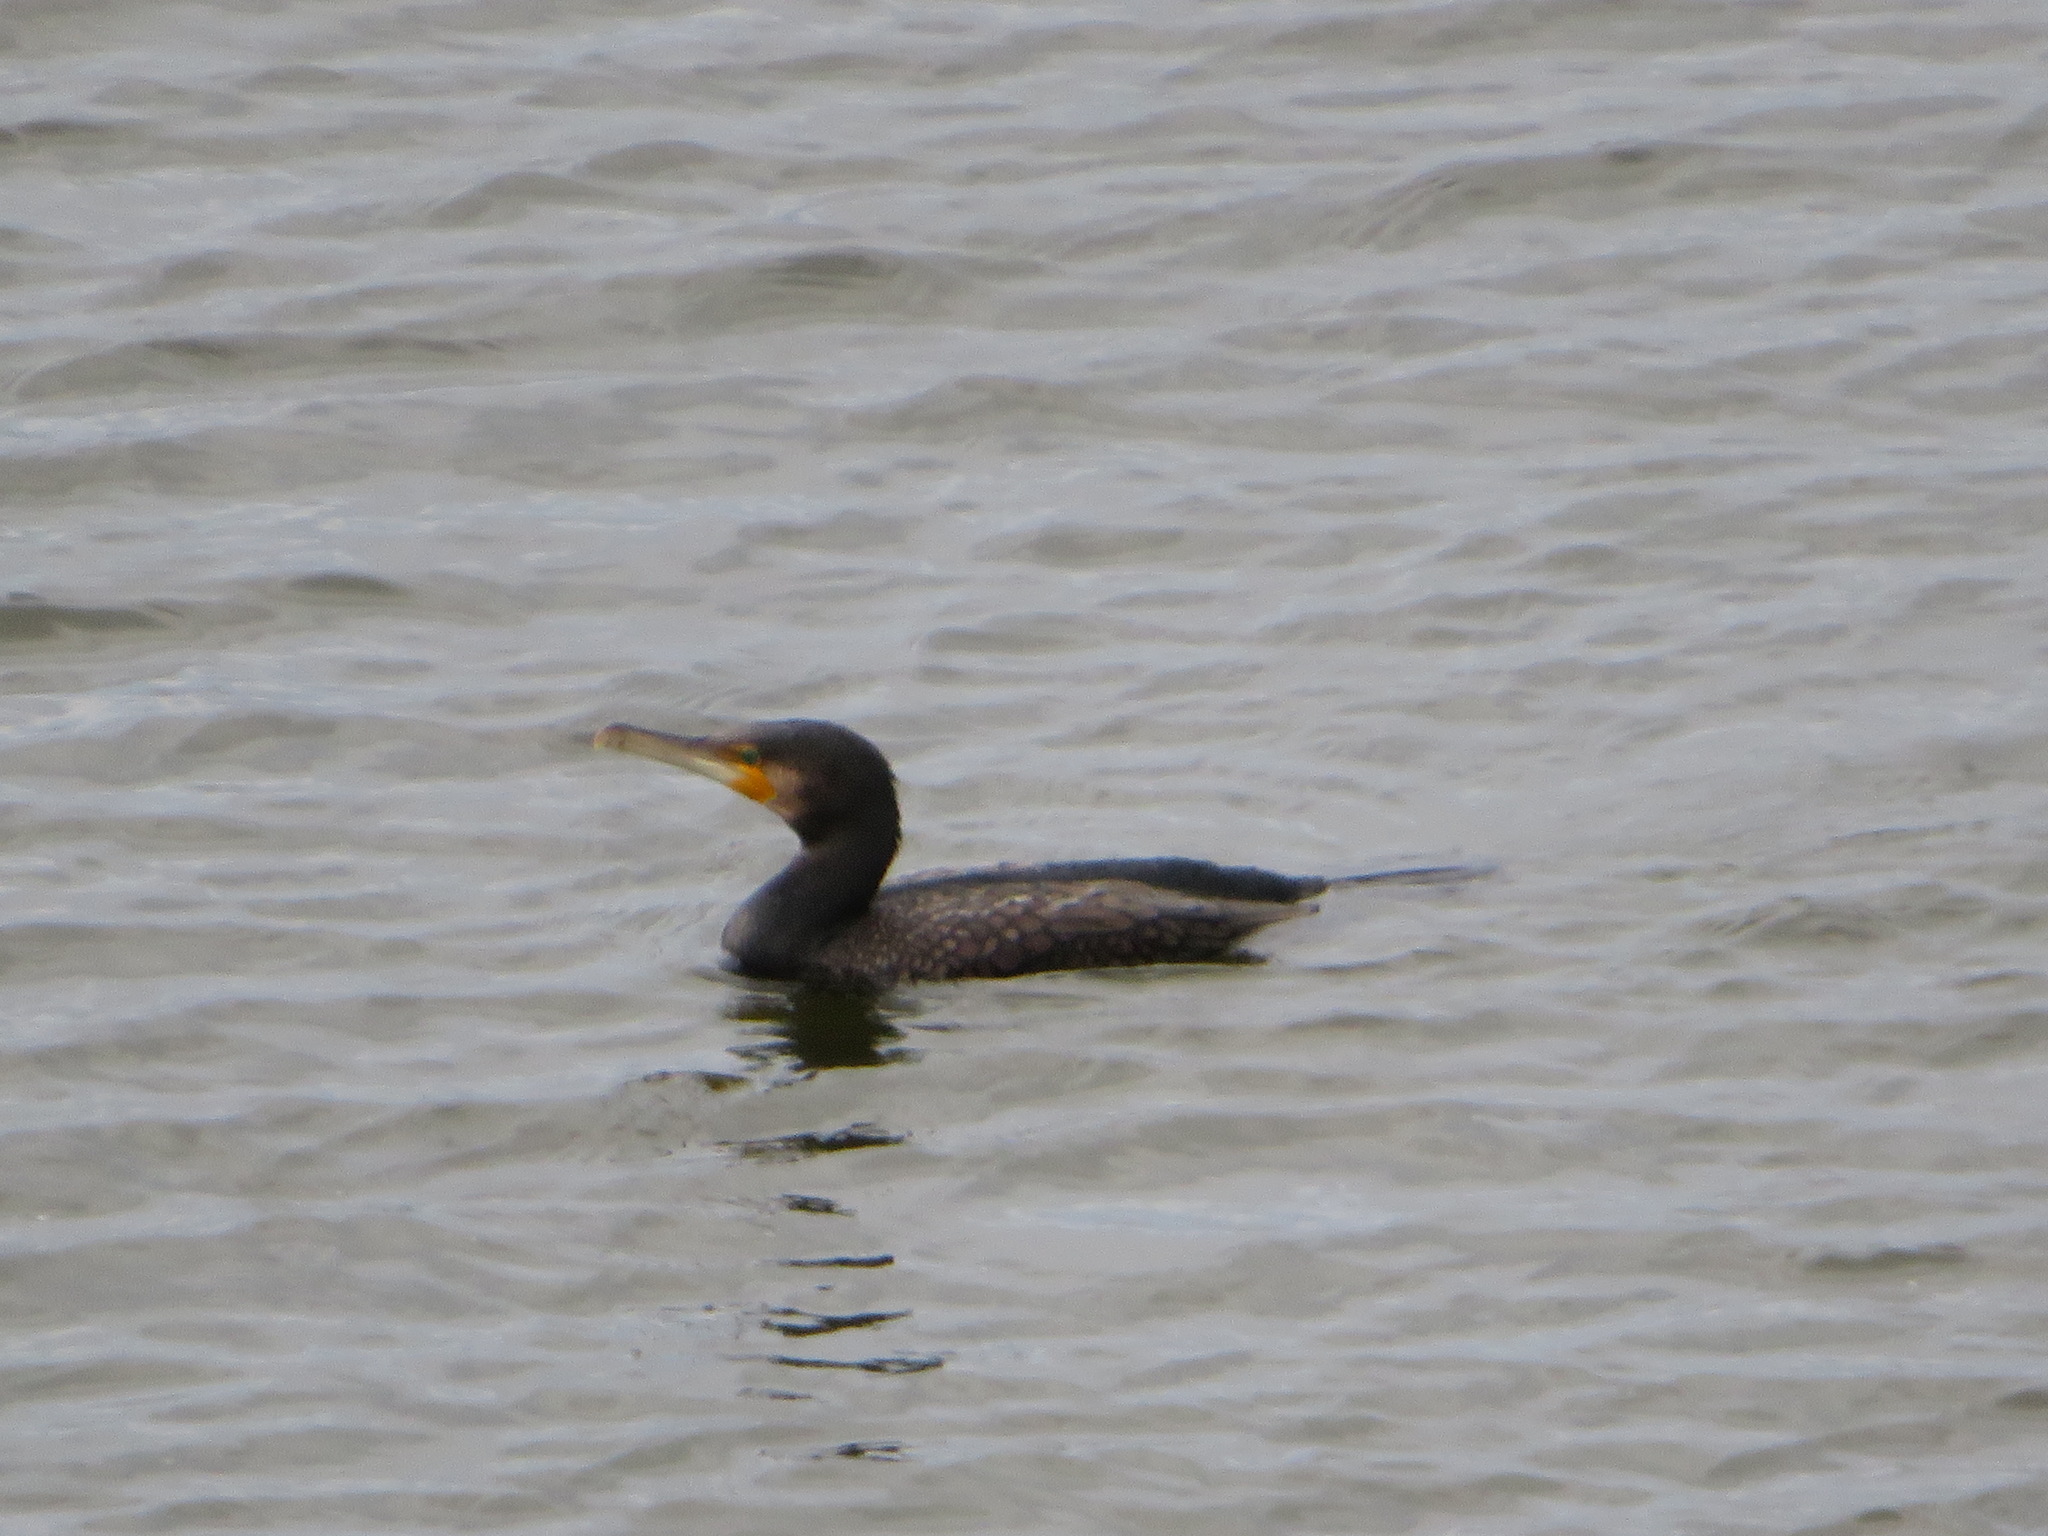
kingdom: Animalia
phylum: Chordata
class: Aves
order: Suliformes
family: Phalacrocoracidae
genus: Phalacrocorax
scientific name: Phalacrocorax carbo
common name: Great cormorant
